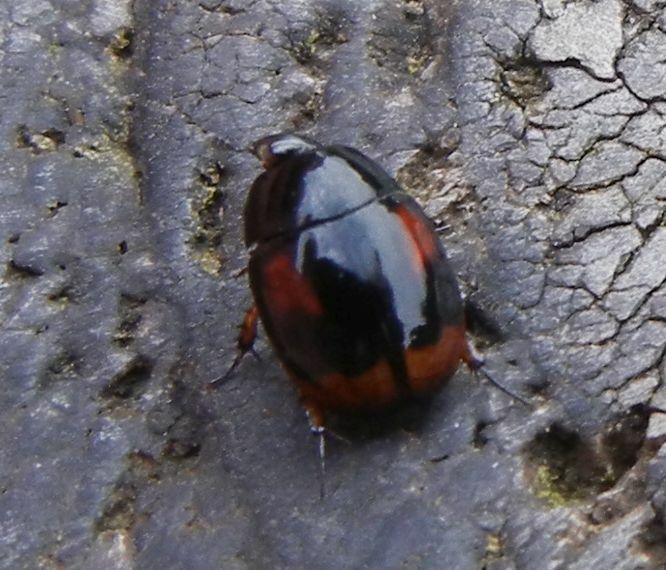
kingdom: Animalia
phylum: Arthropoda
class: Insecta
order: Coleoptera
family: Hydrophilidae
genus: Sphaeridium
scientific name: Sphaeridium scarabaeoides
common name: Water scavenger beetle
